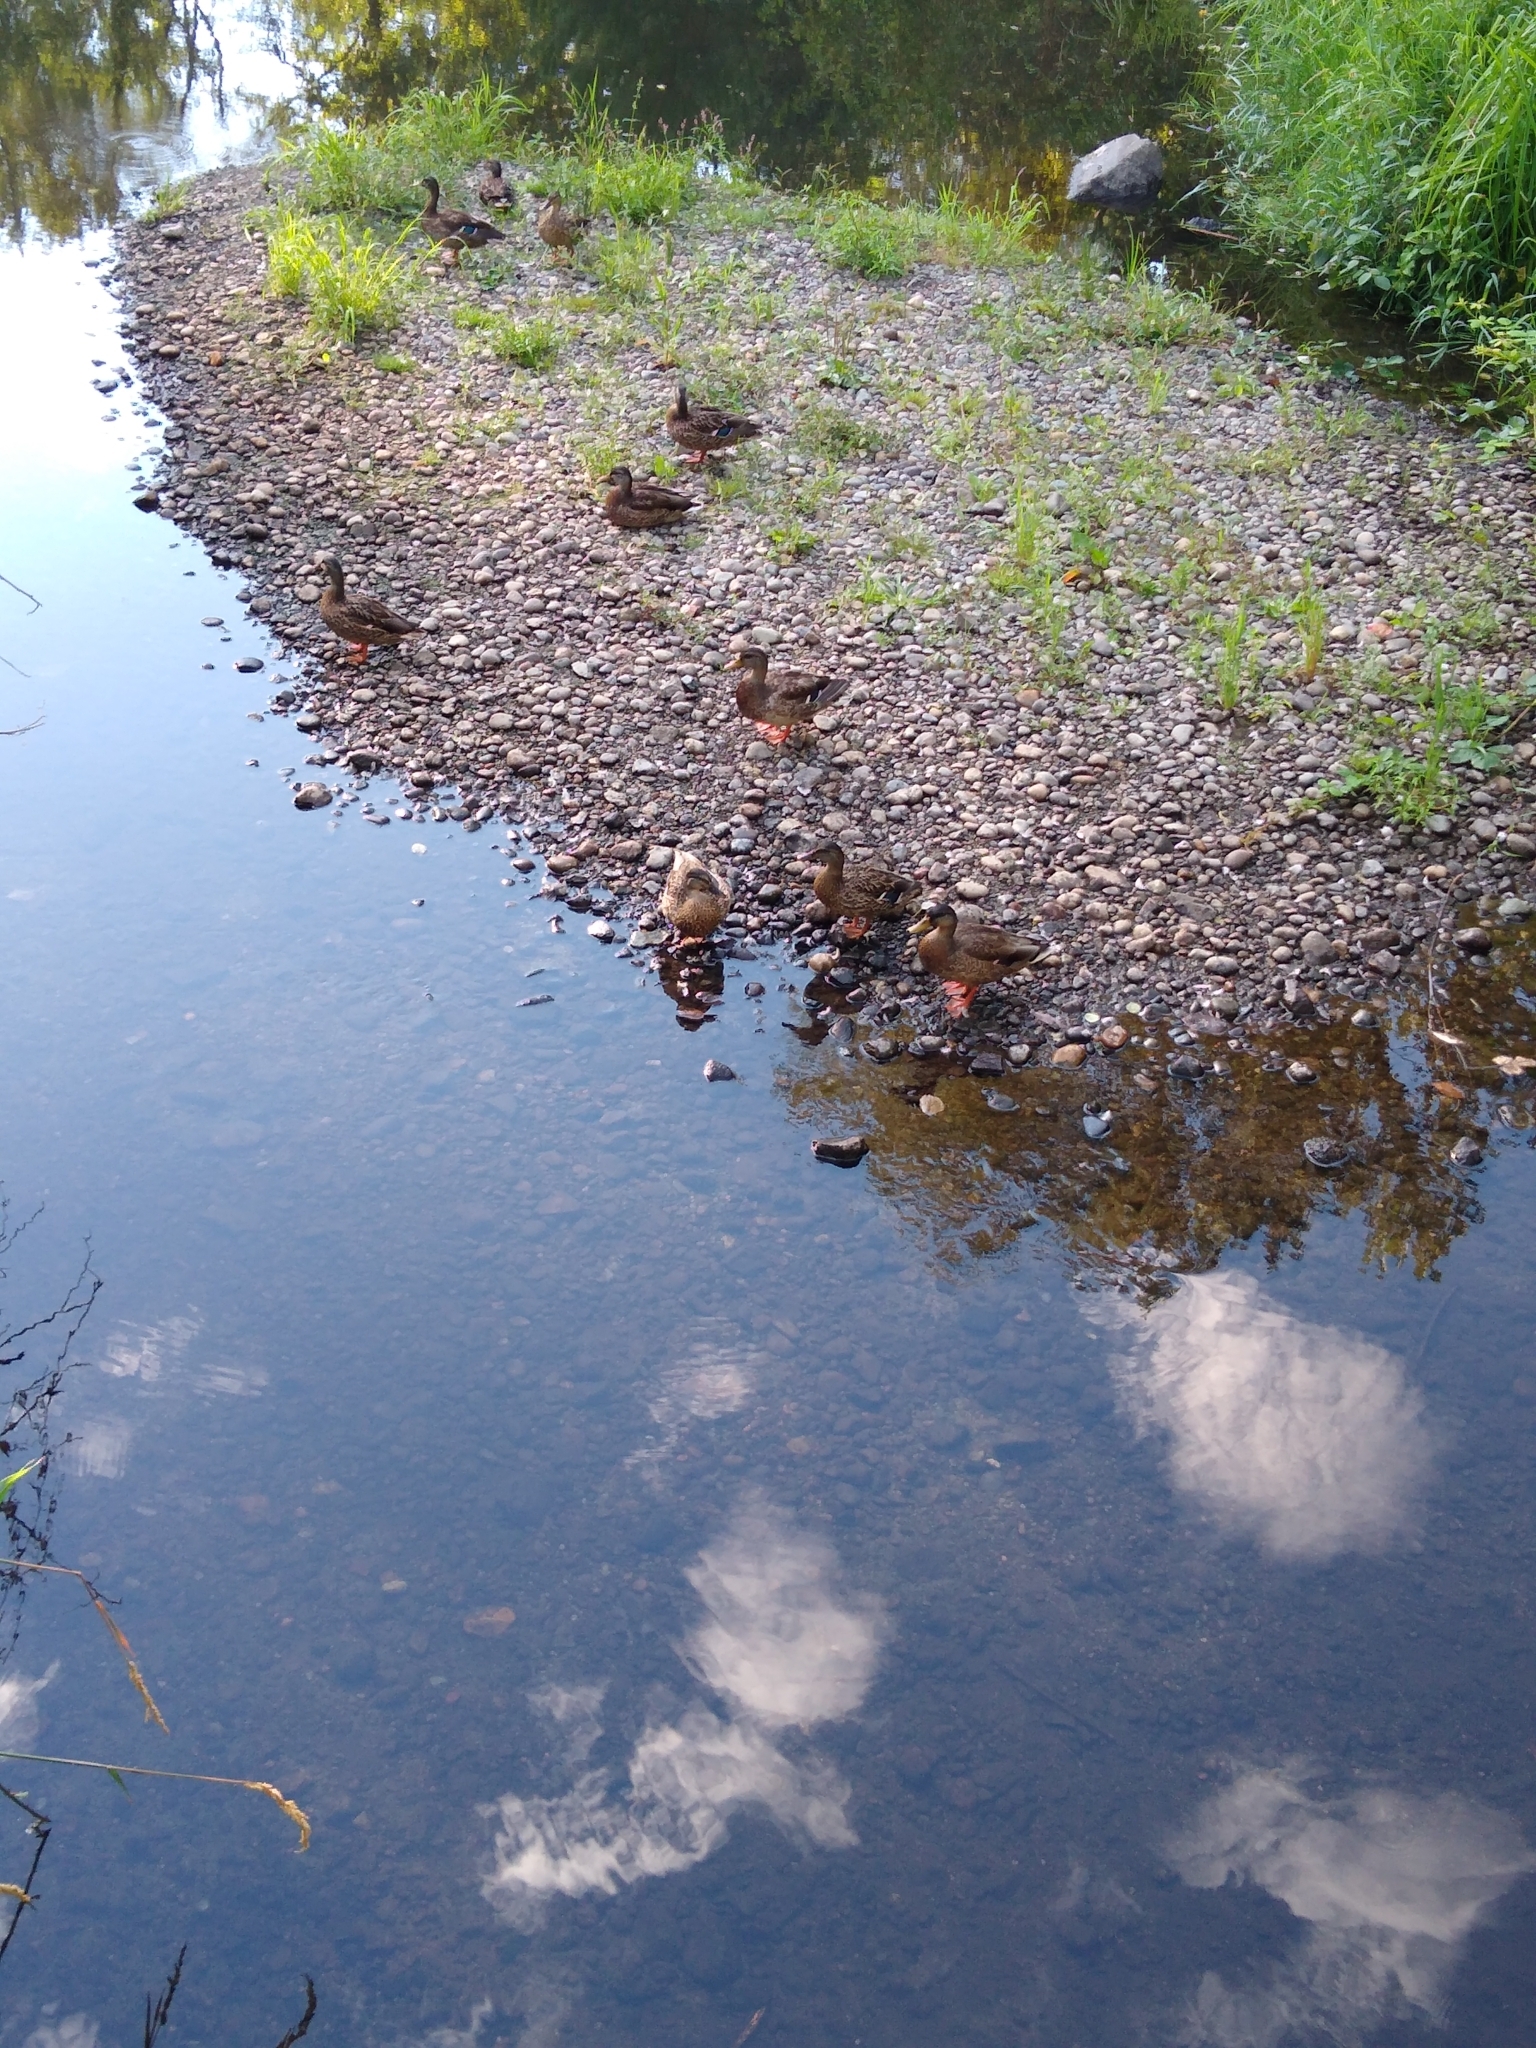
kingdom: Animalia
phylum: Chordata
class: Aves
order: Anseriformes
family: Anatidae
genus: Anas
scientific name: Anas platyrhynchos
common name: Mallard
